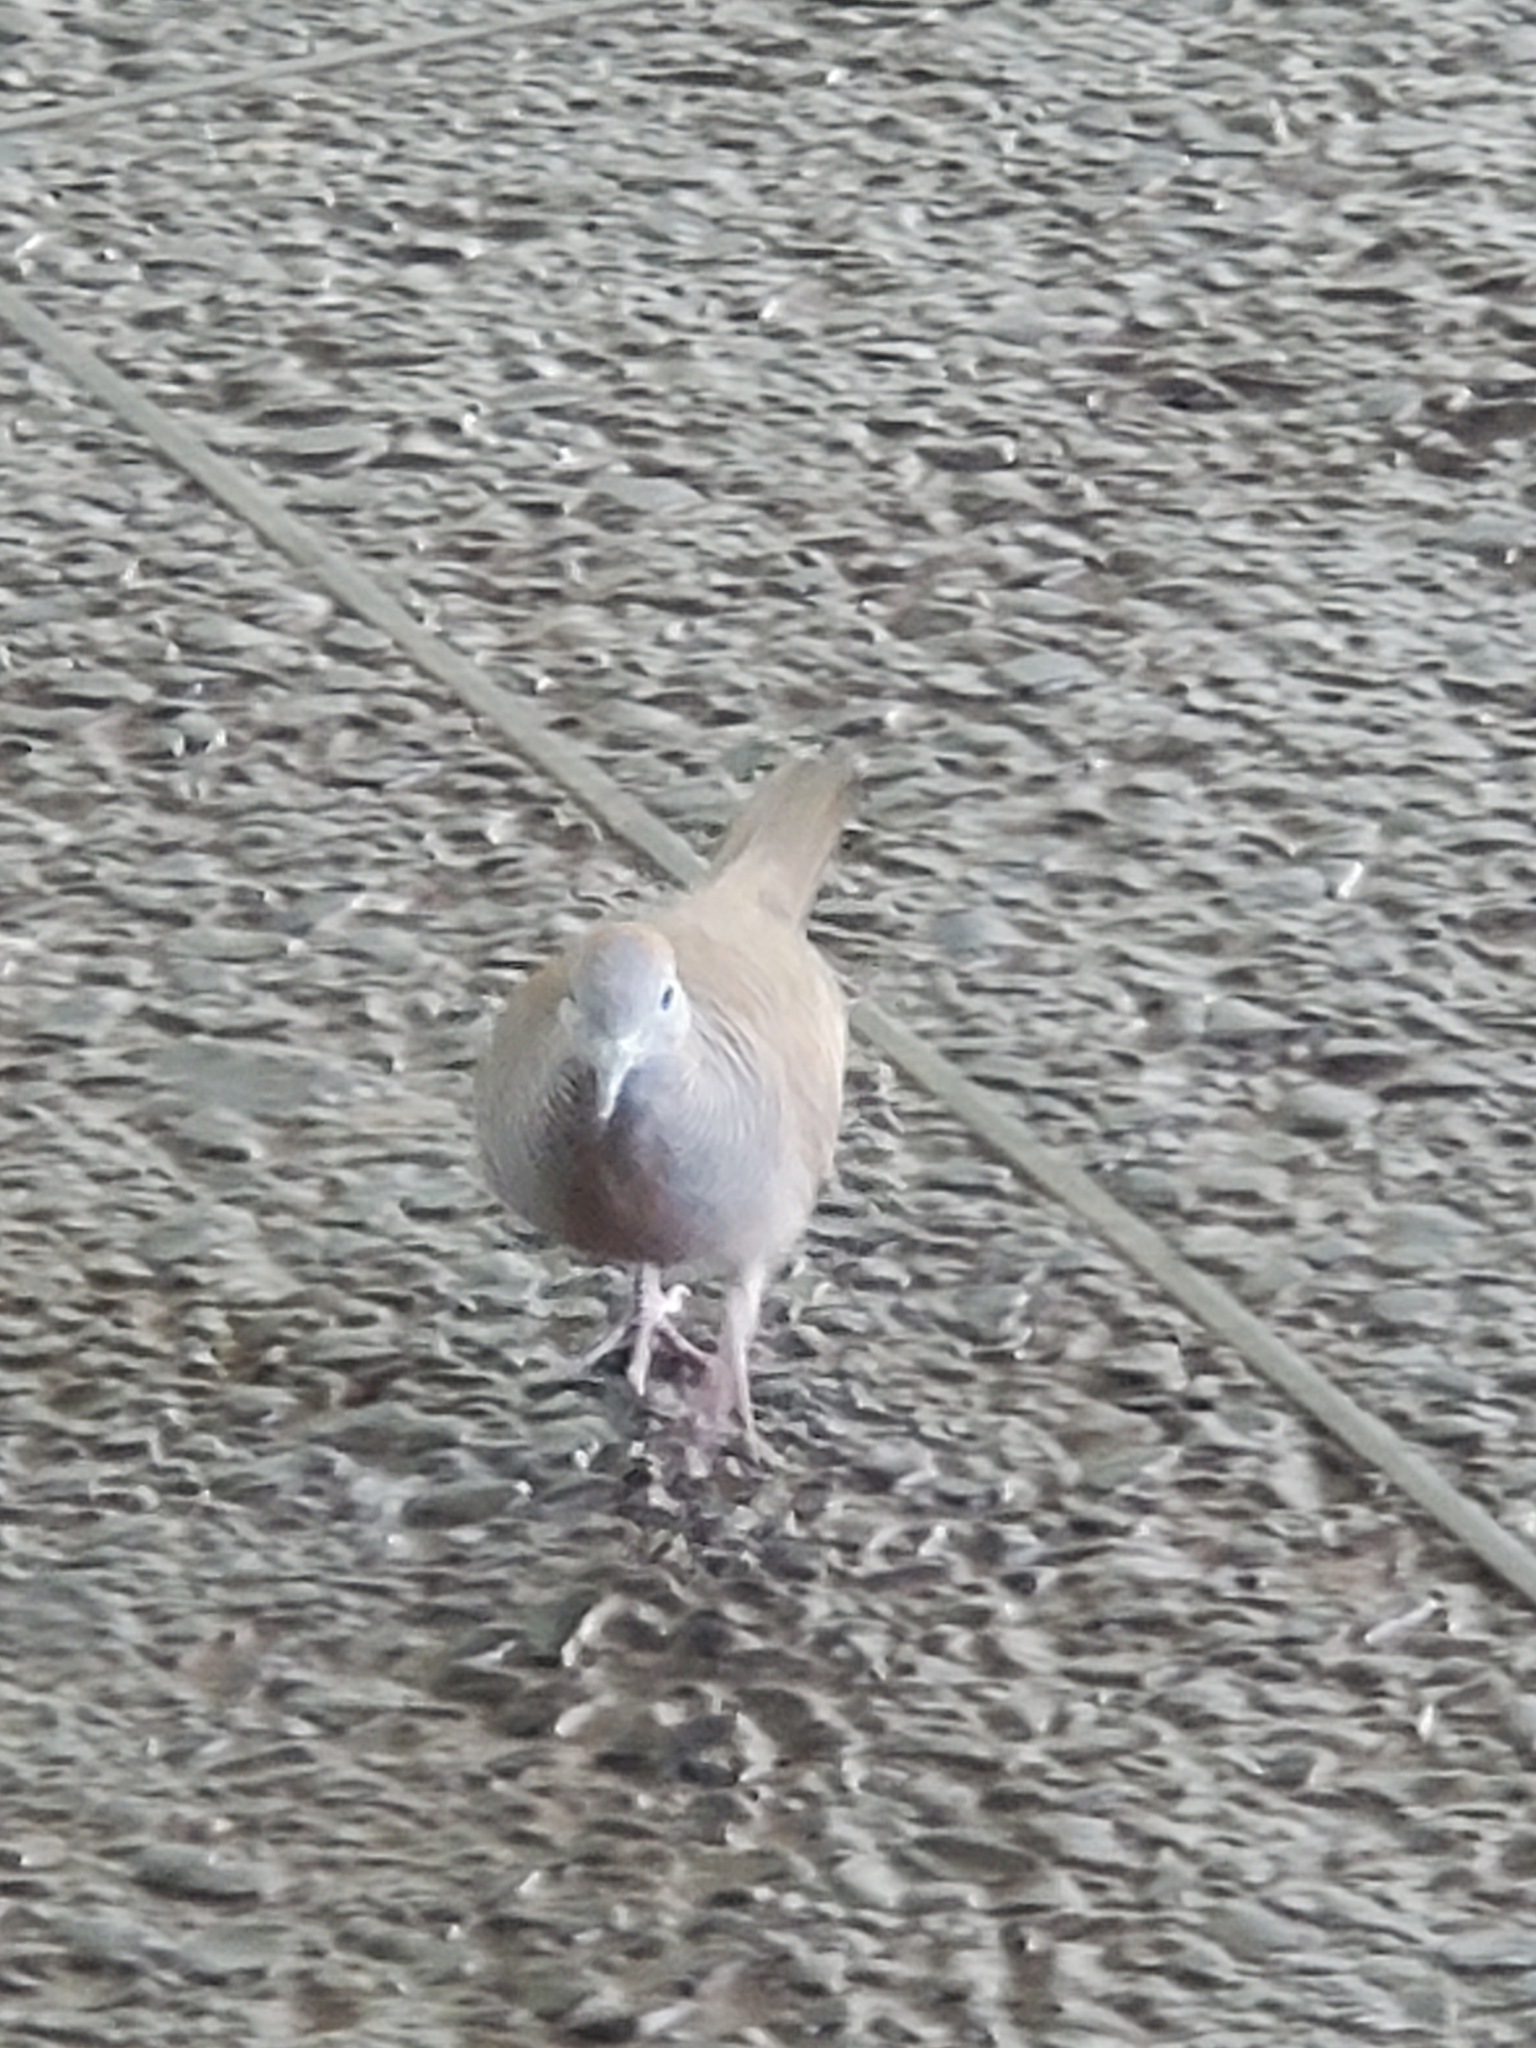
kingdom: Animalia
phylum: Chordata
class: Aves
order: Columbiformes
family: Columbidae
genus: Geopelia
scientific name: Geopelia striata
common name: Zebra dove
